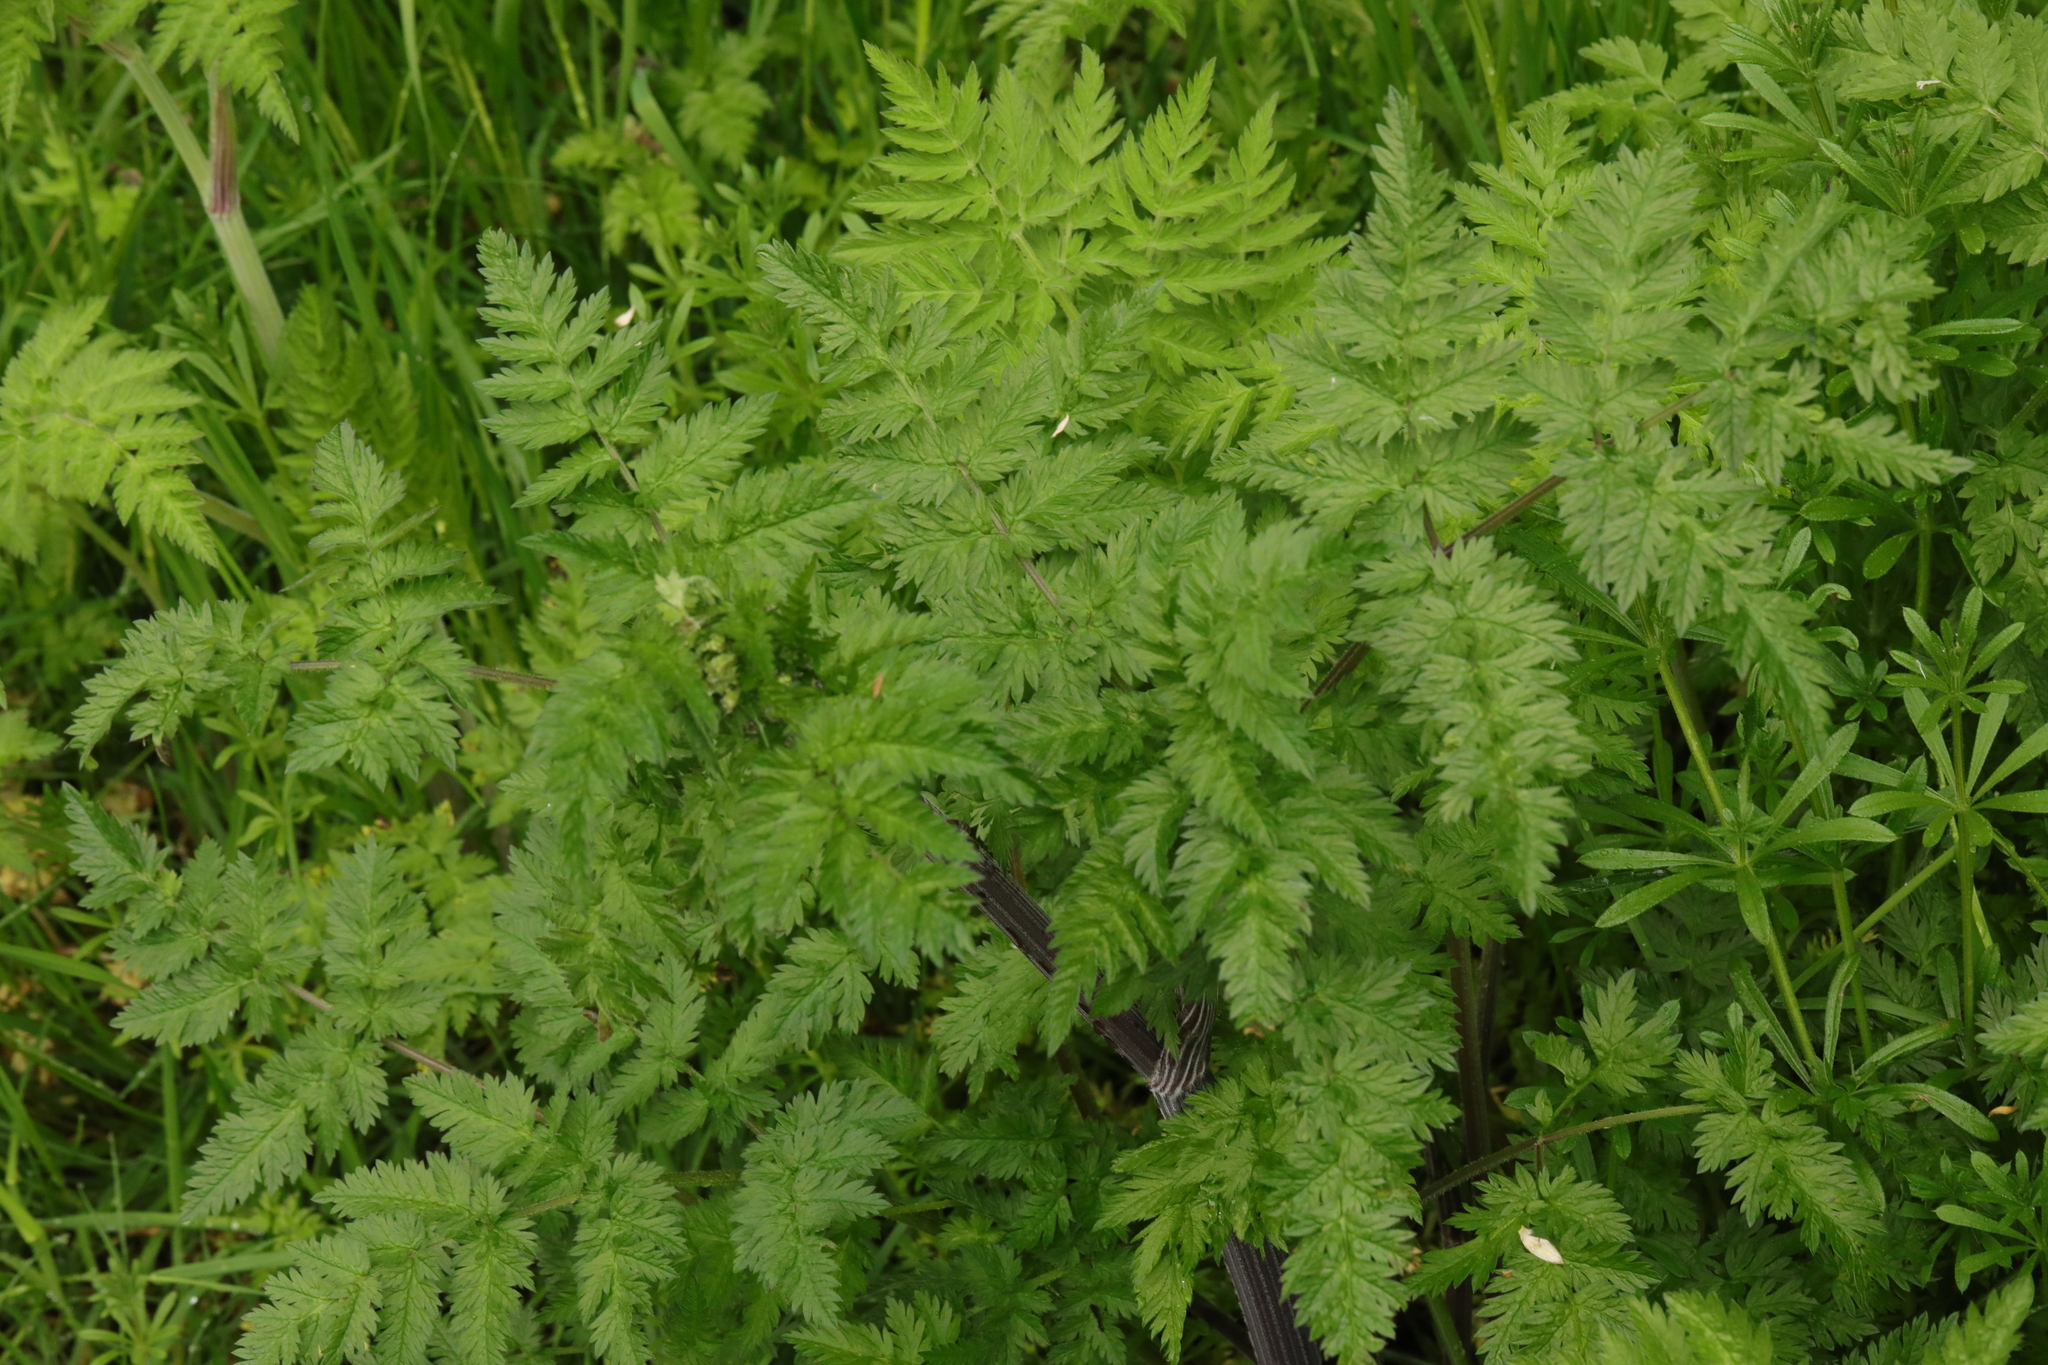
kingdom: Plantae
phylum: Tracheophyta
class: Magnoliopsida
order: Apiales
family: Apiaceae
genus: Anthriscus
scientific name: Anthriscus sylvestris
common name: Cow parsley
